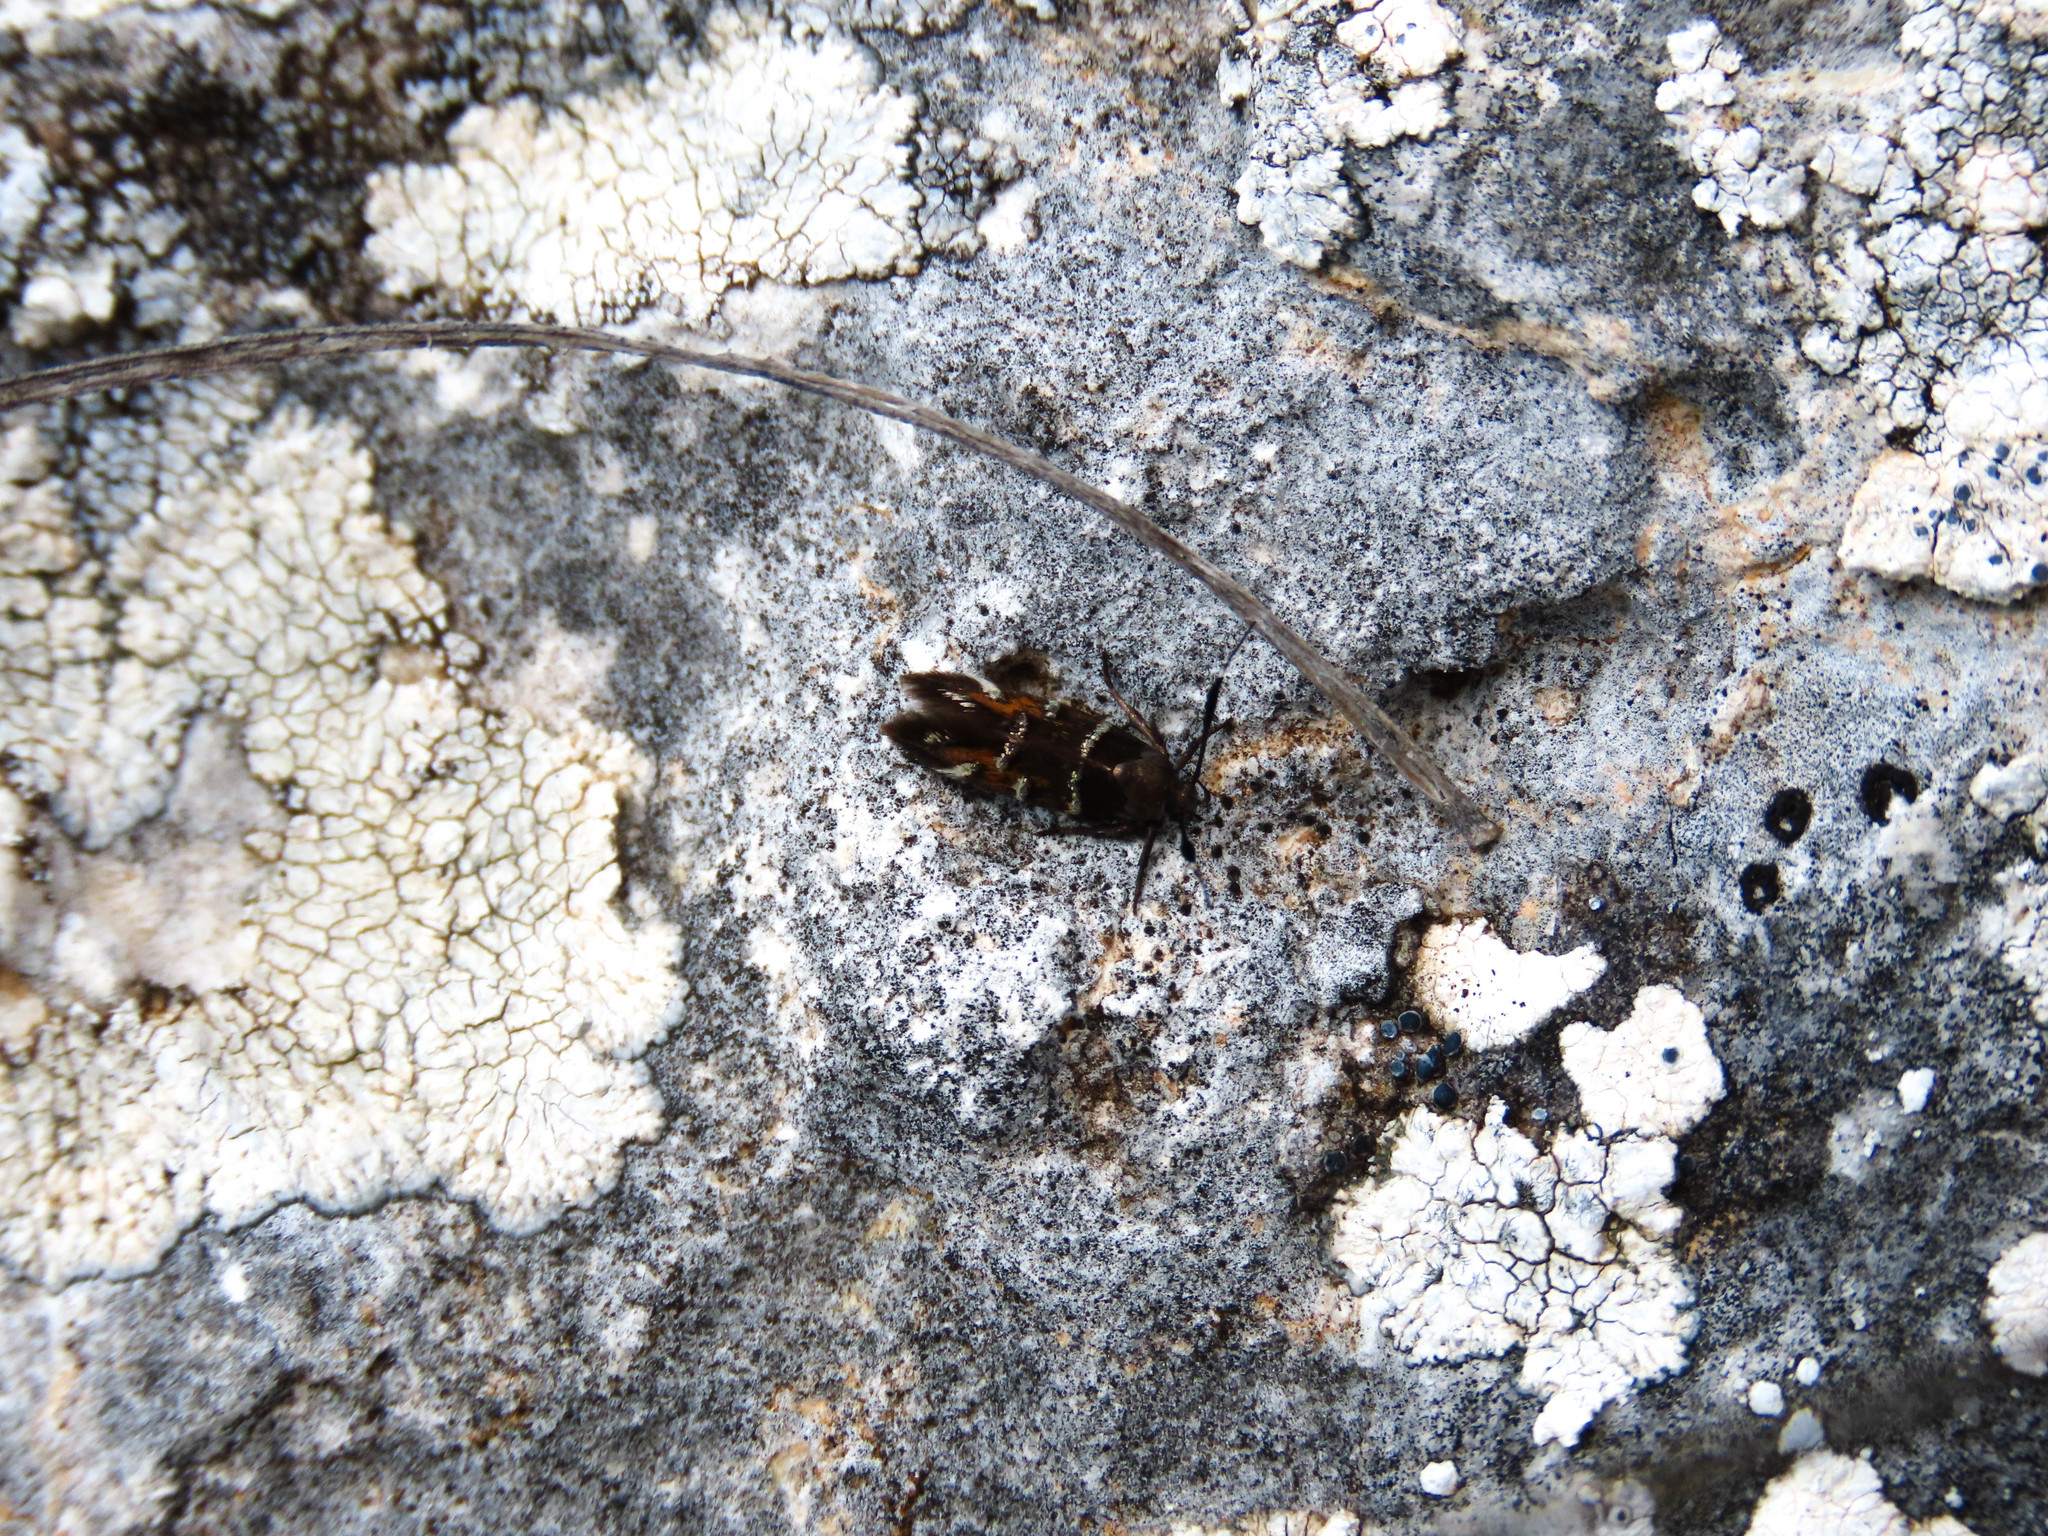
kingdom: Animalia
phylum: Arthropoda
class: Insecta
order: Lepidoptera
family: Cosmopterigidae
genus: Pancalia
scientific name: Pancalia nodosella
